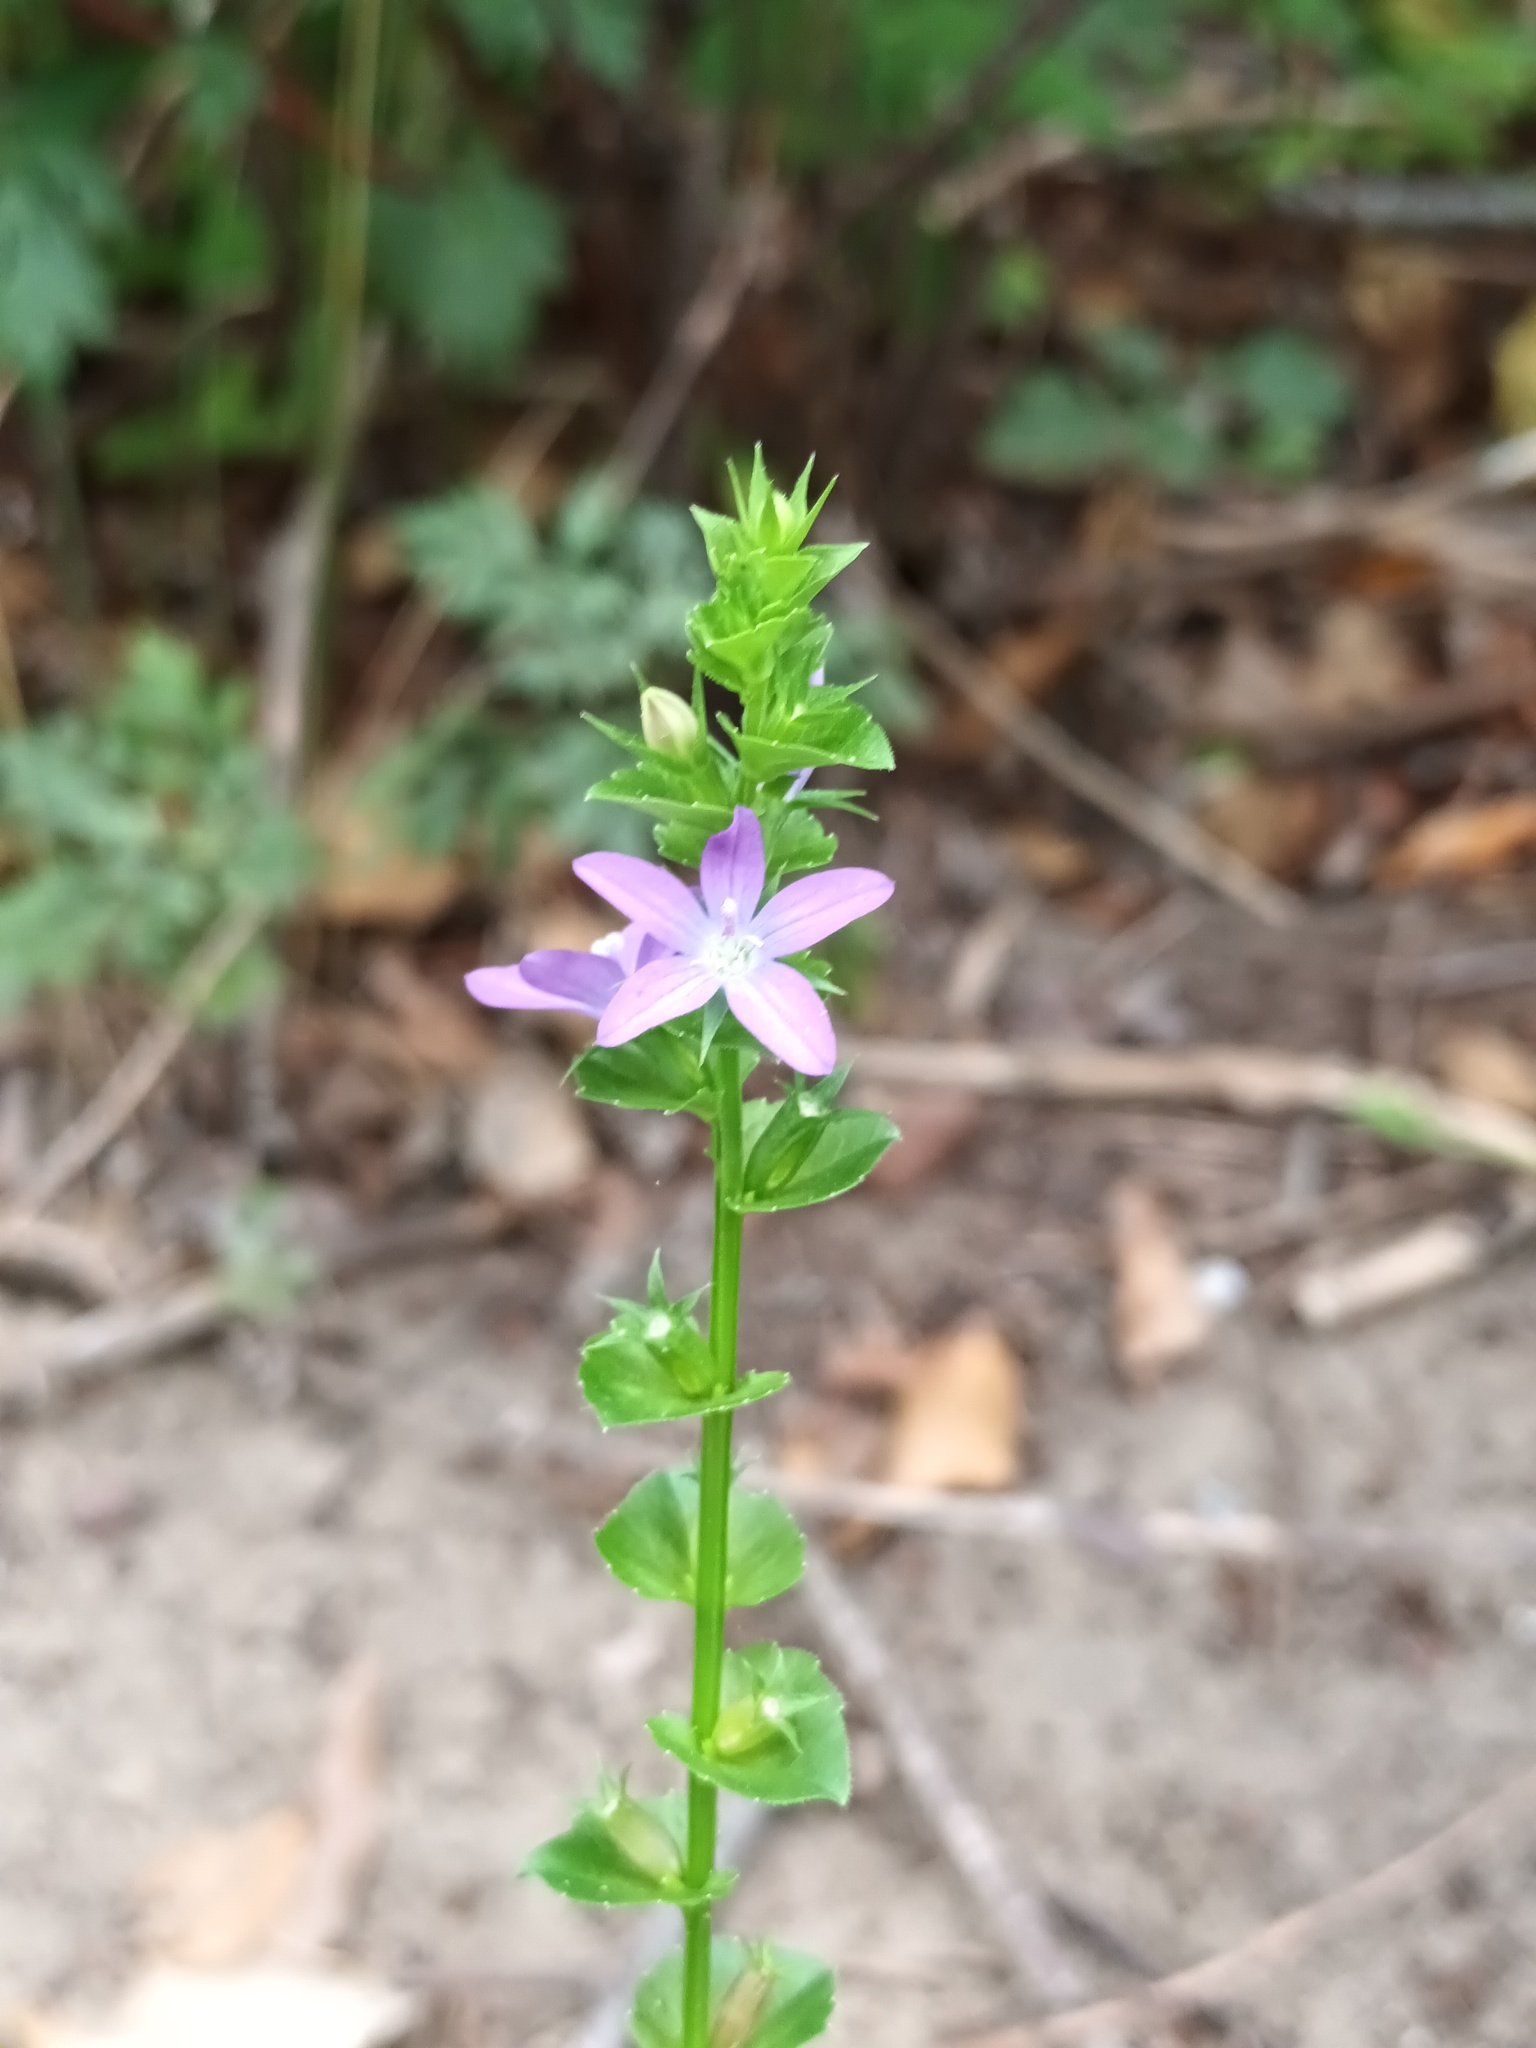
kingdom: Plantae
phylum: Tracheophyta
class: Magnoliopsida
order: Asterales
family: Campanulaceae
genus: Triodanis
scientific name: Triodanis perfoliata
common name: Clasping venus' looking-glass
